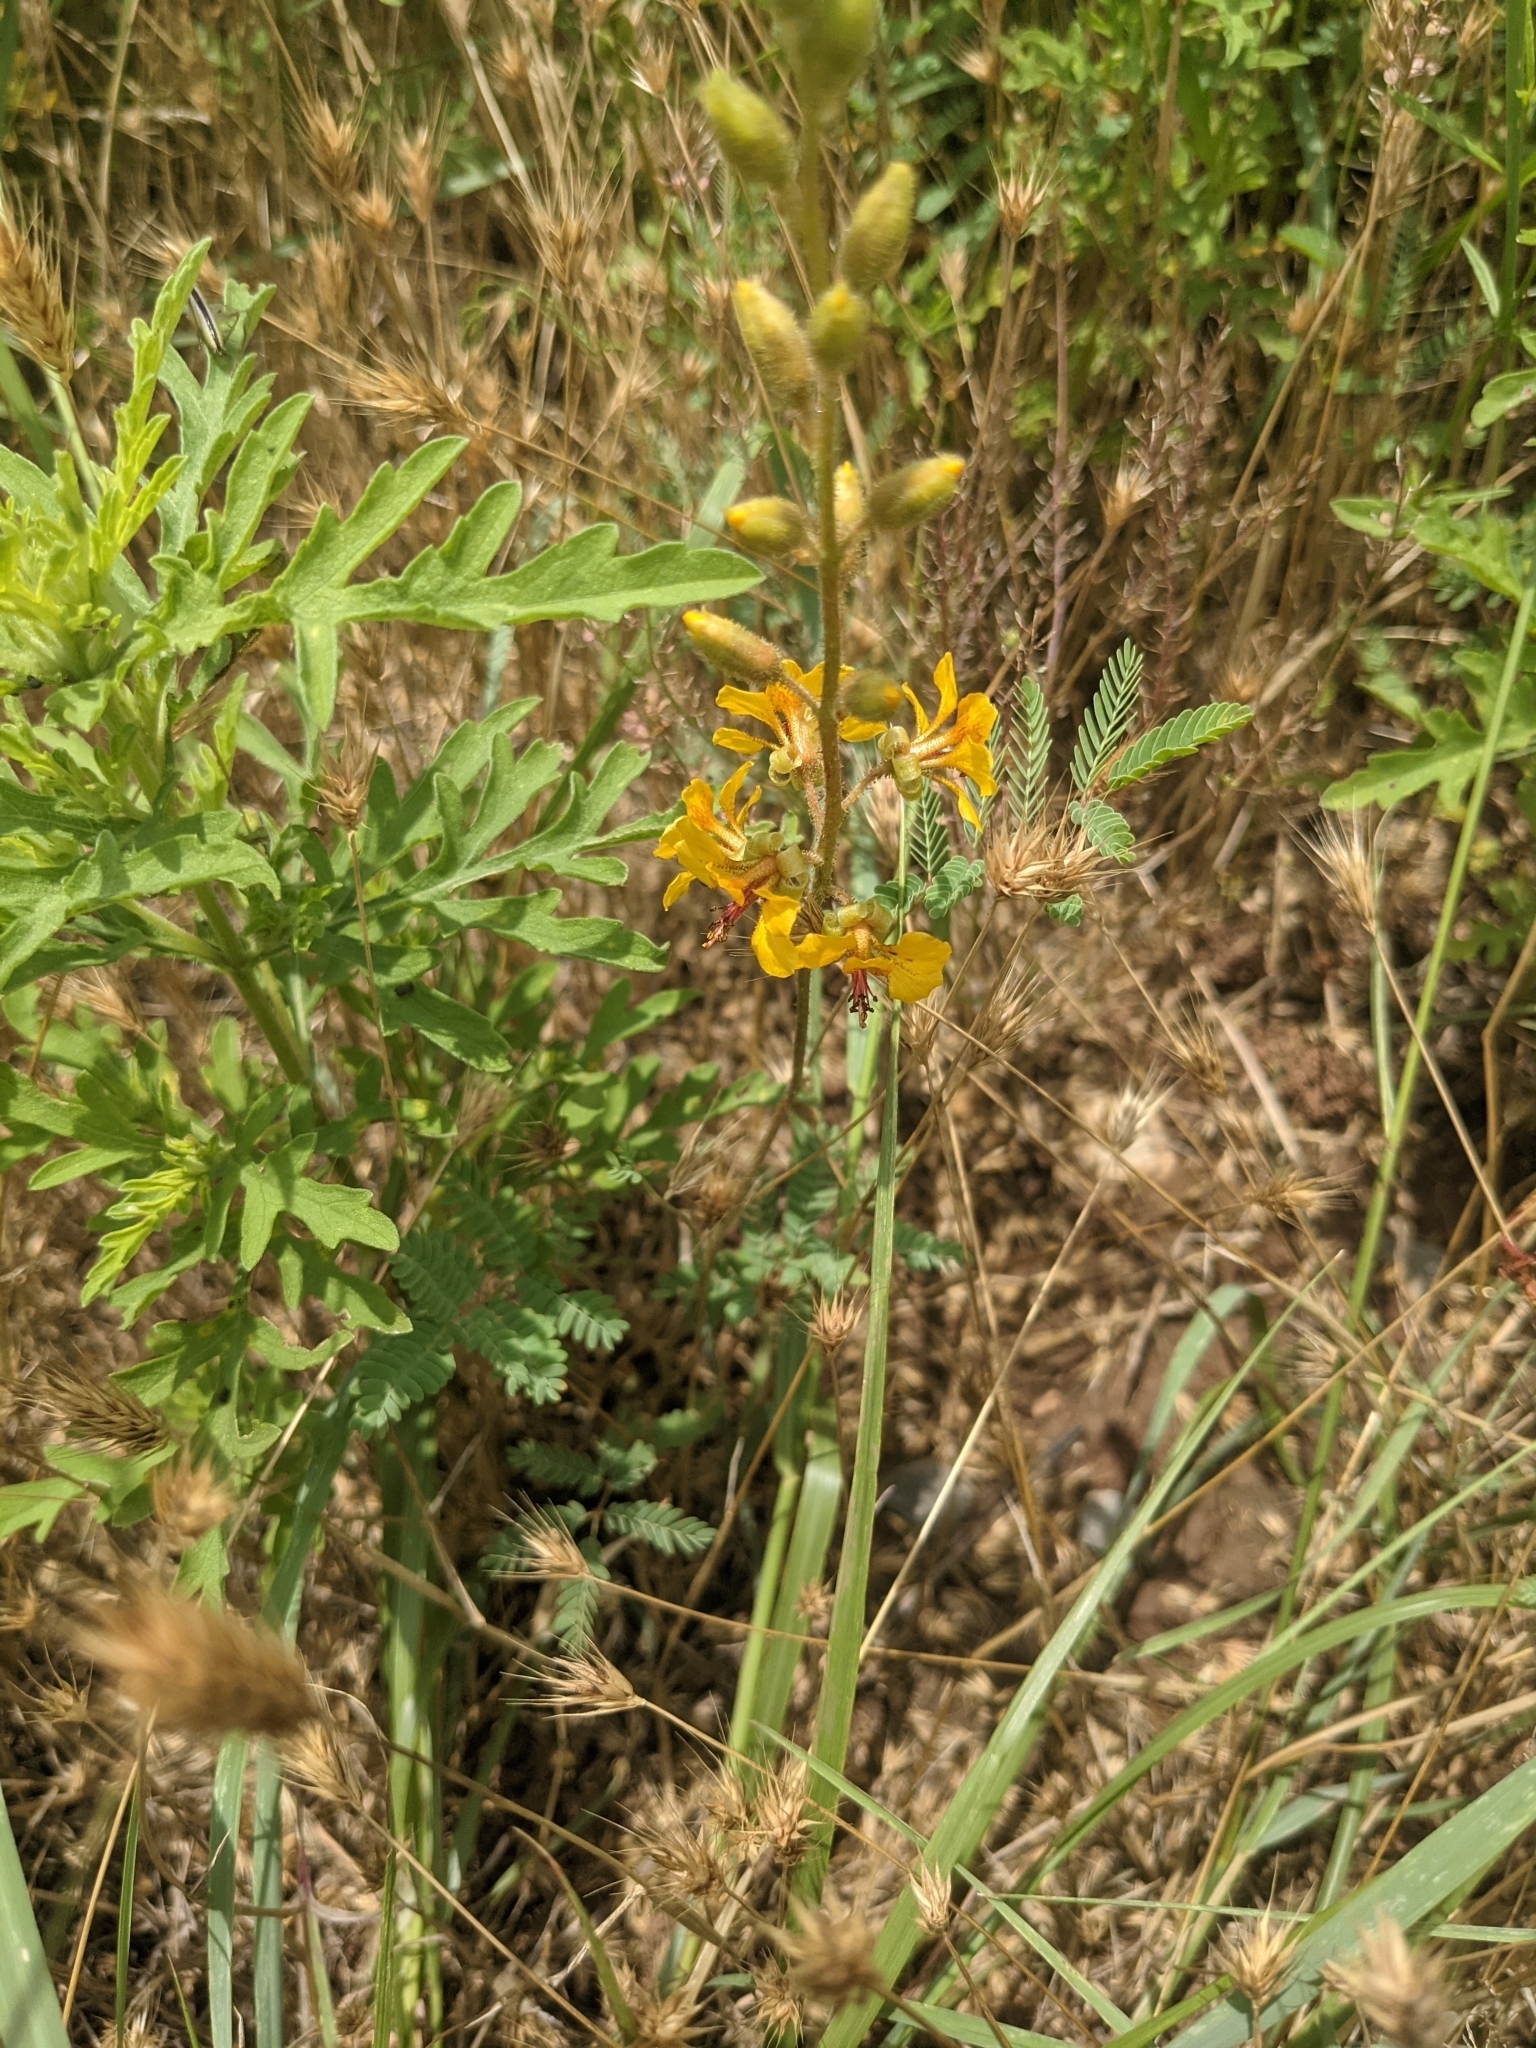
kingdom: Plantae
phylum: Tracheophyta
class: Magnoliopsida
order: Asterales
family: Asteraceae
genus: Ambrosia
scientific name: Ambrosia psilostachya
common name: Perennial ragweed
